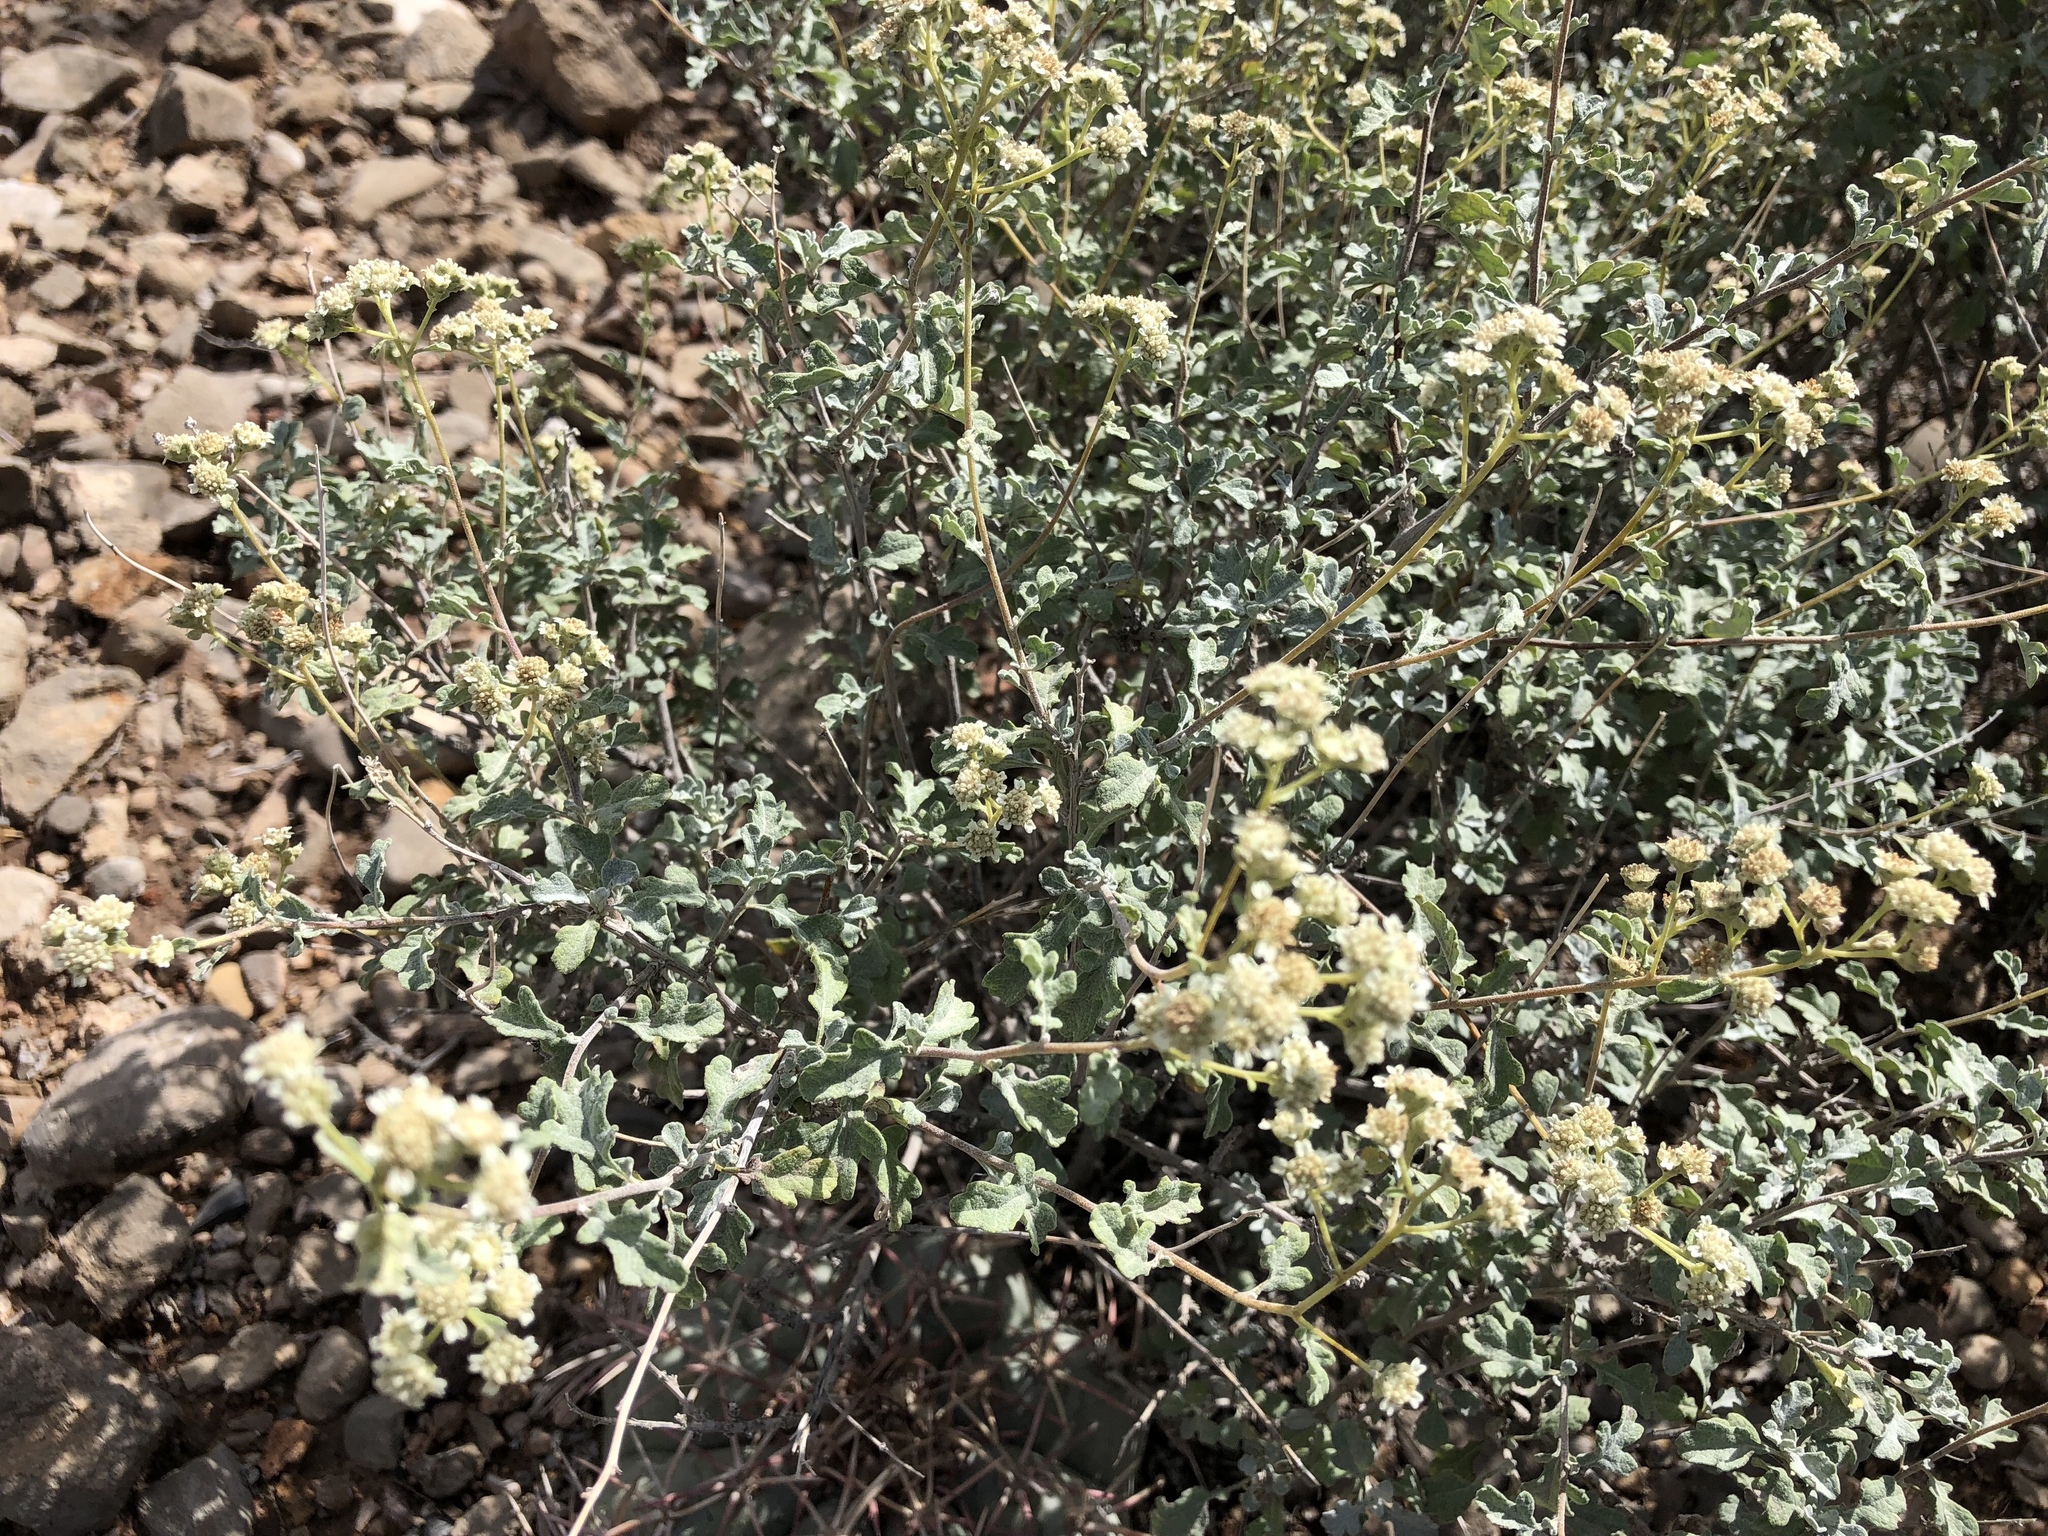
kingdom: Plantae
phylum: Tracheophyta
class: Magnoliopsida
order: Asterales
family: Asteraceae
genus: Parthenium
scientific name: Parthenium incanum
